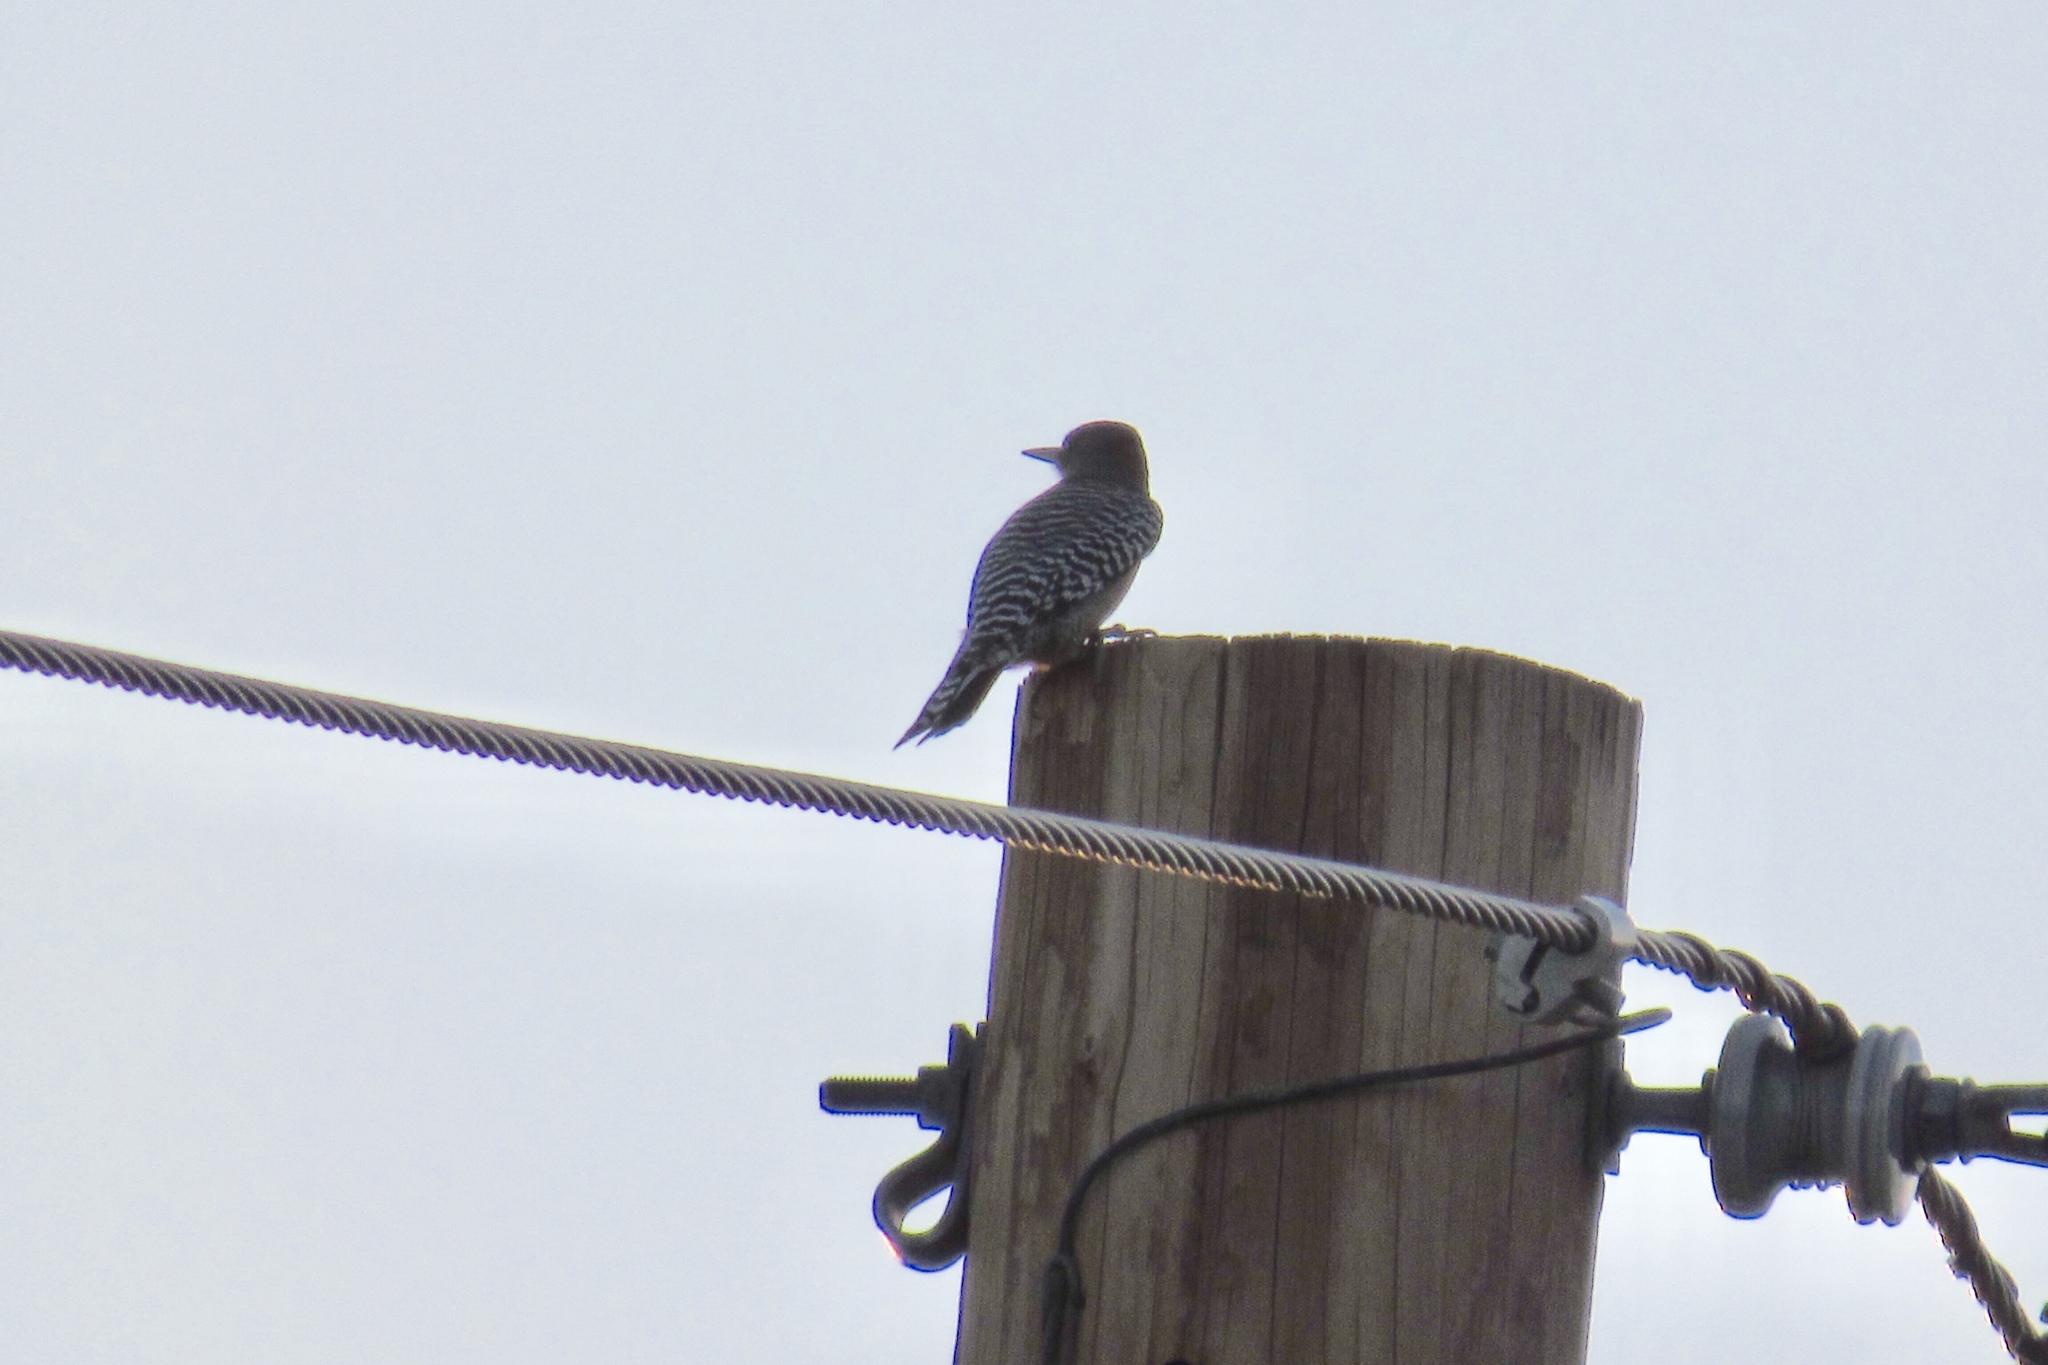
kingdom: Animalia
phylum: Chordata
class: Aves
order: Piciformes
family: Picidae
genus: Melanerpes
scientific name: Melanerpes uropygialis
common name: Gila woodpecker
